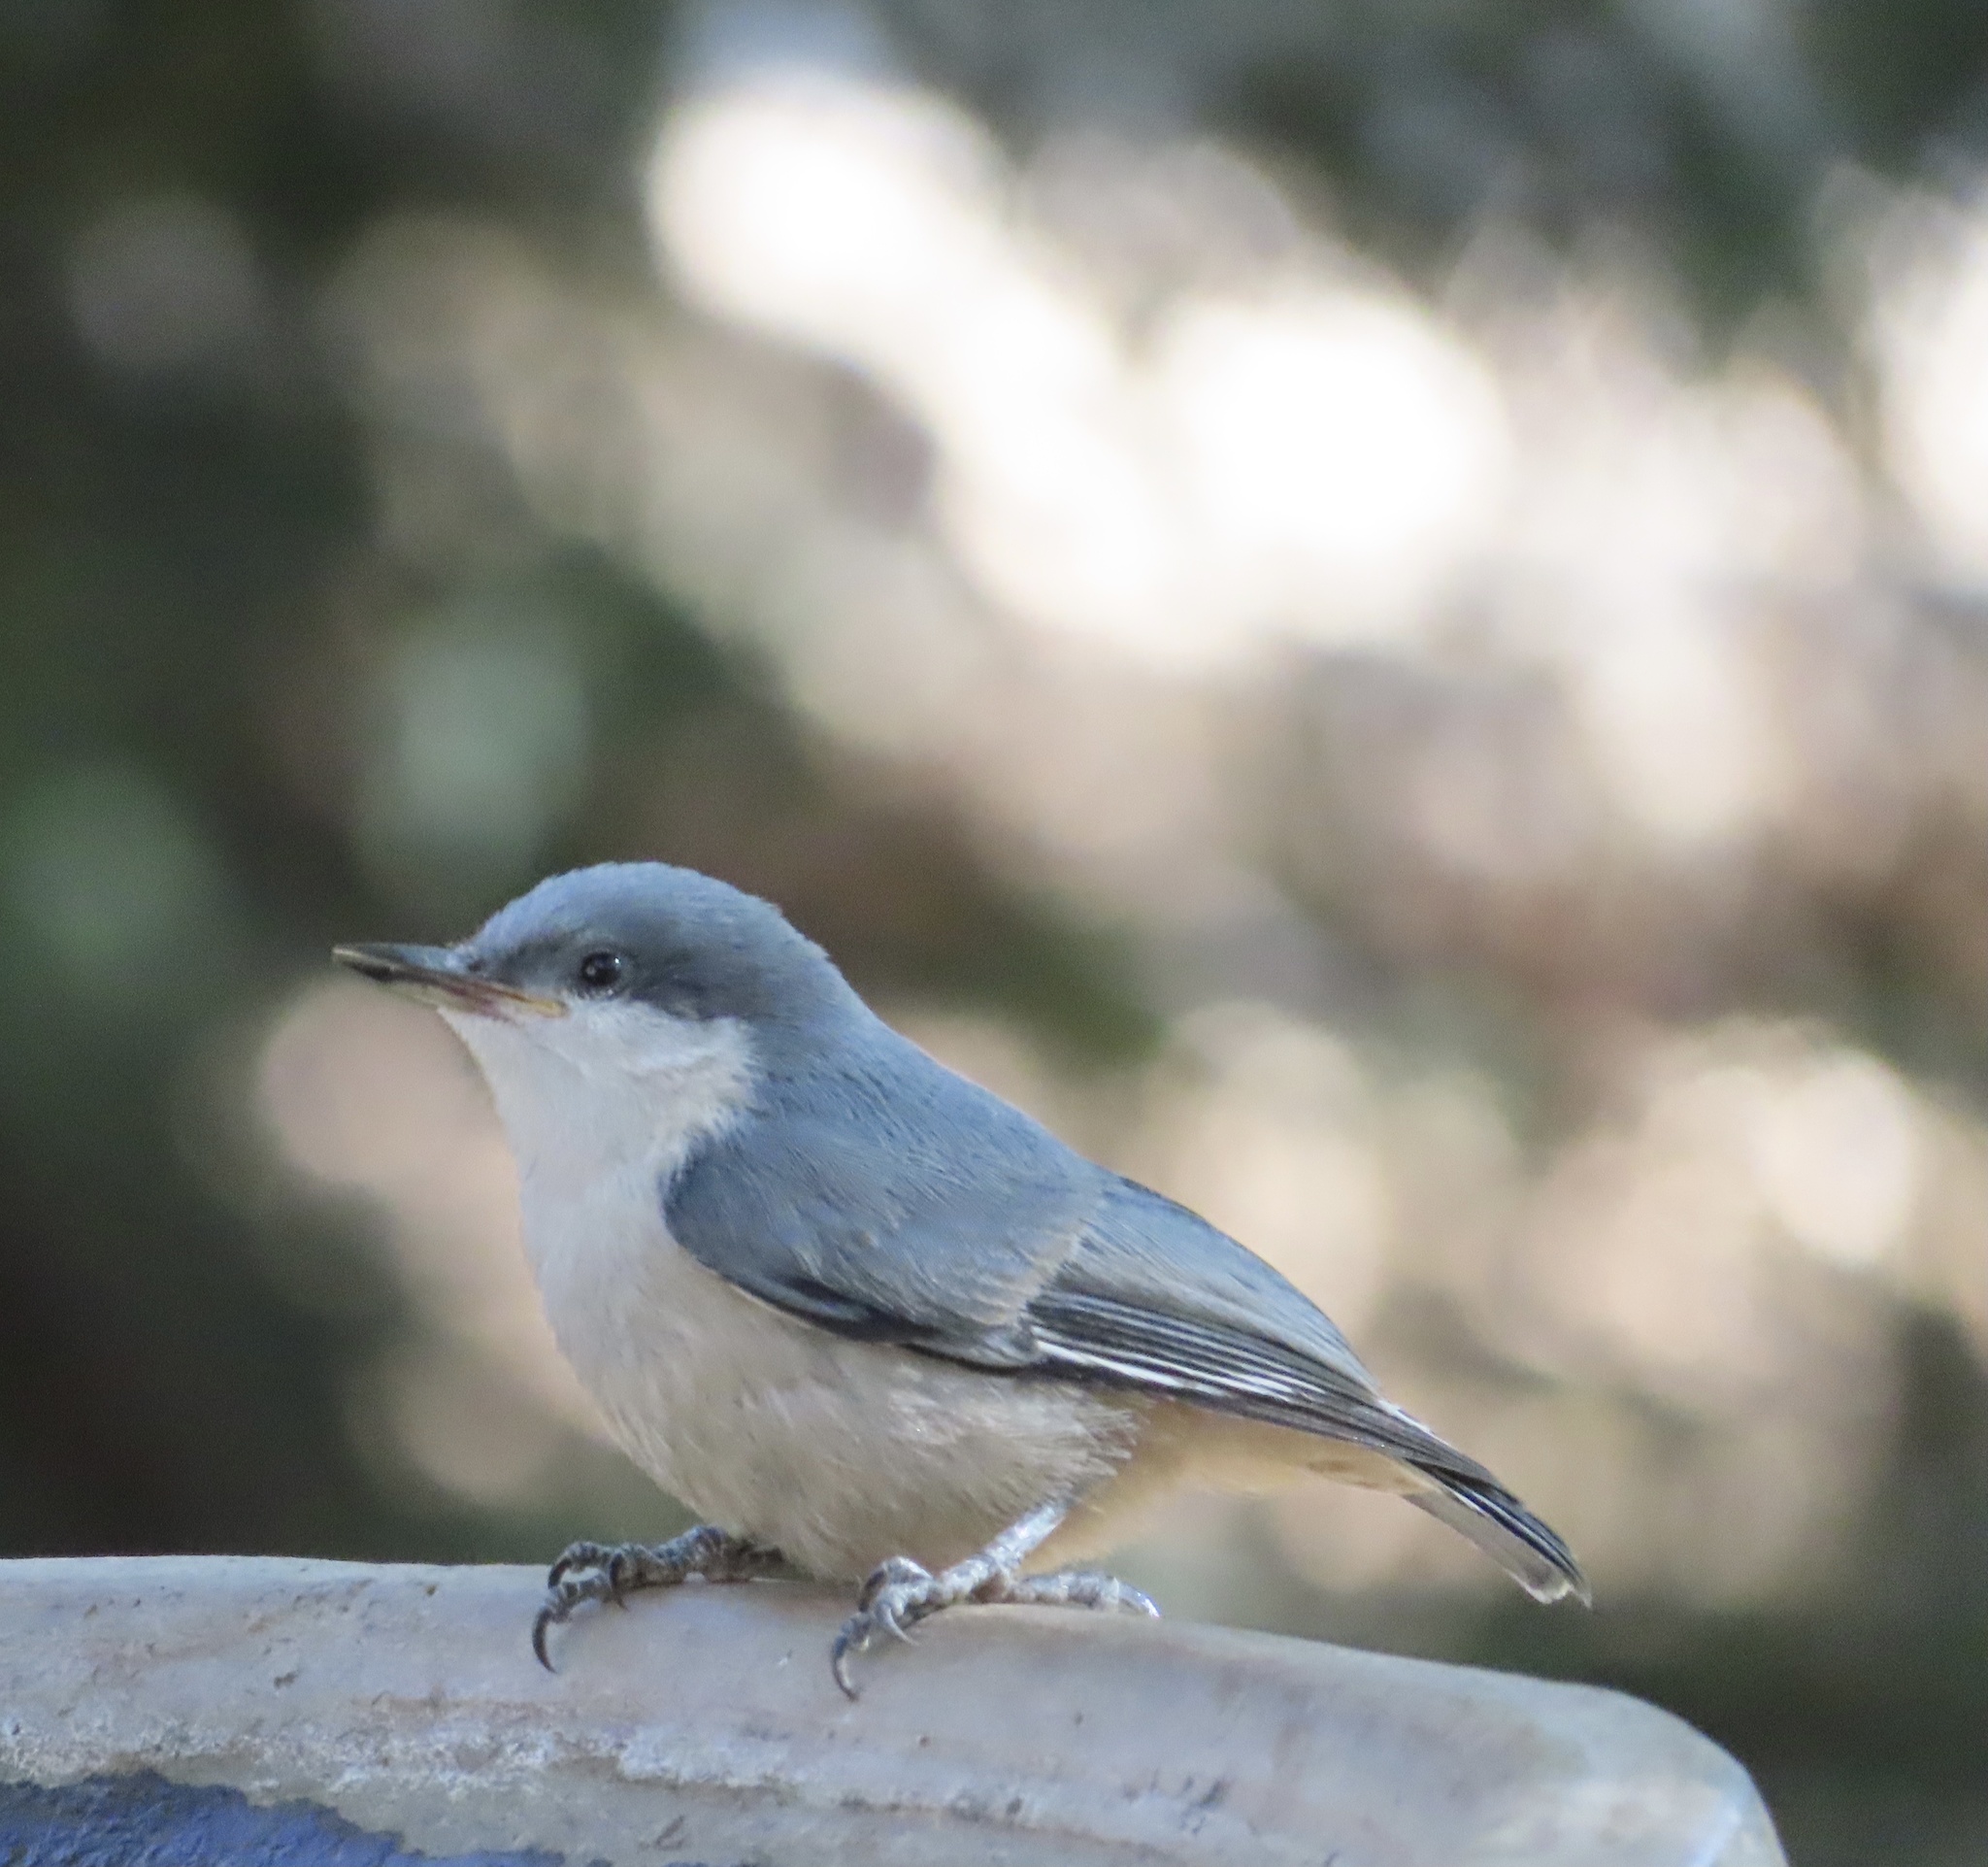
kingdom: Animalia
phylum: Chordata
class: Aves
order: Passeriformes
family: Sittidae
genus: Sitta
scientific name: Sitta pygmaea
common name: Pygmy nuthatch
